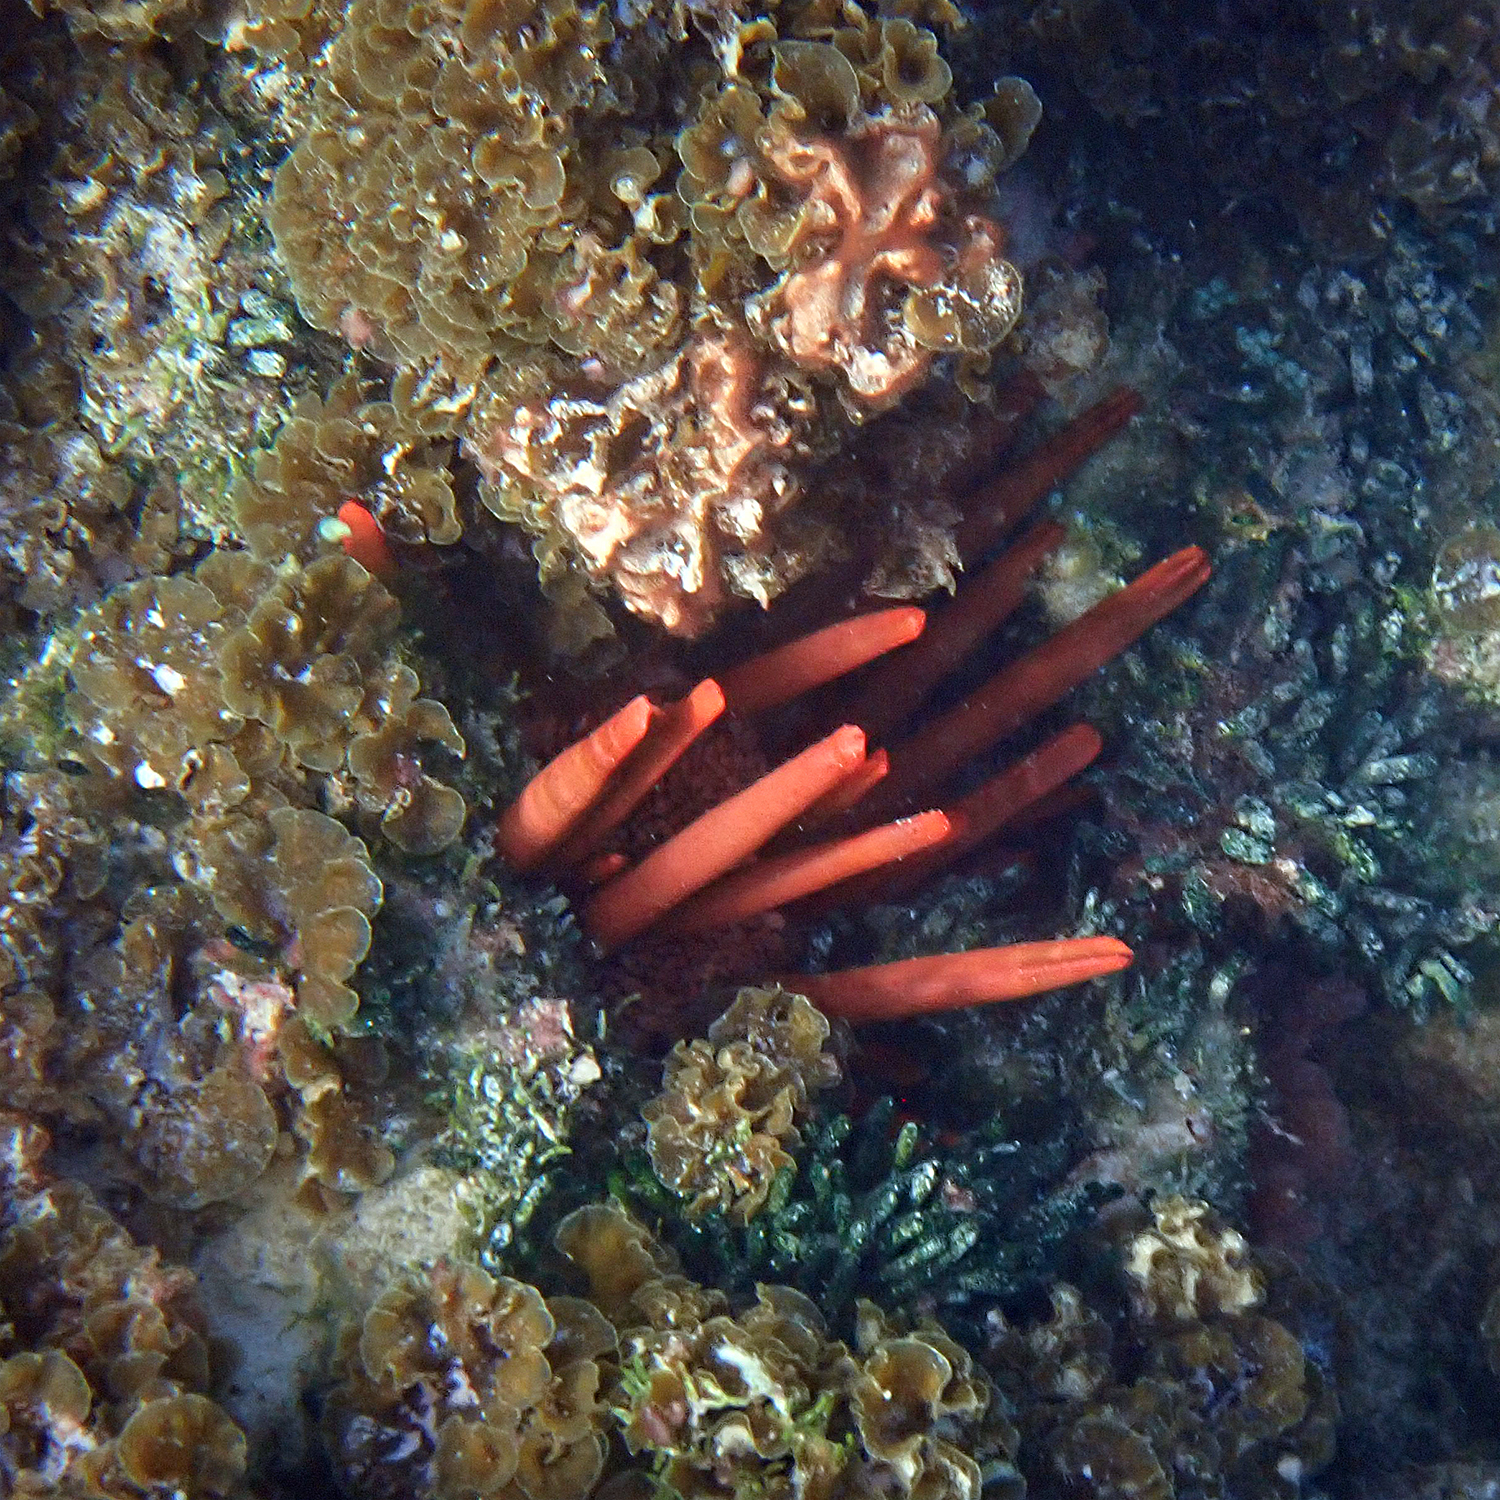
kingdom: Animalia
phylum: Echinodermata
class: Echinoidea
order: Camarodonta
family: Echinometridae
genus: Heterocentrotus
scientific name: Heterocentrotus mamillatus
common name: Slate pencil urchin
